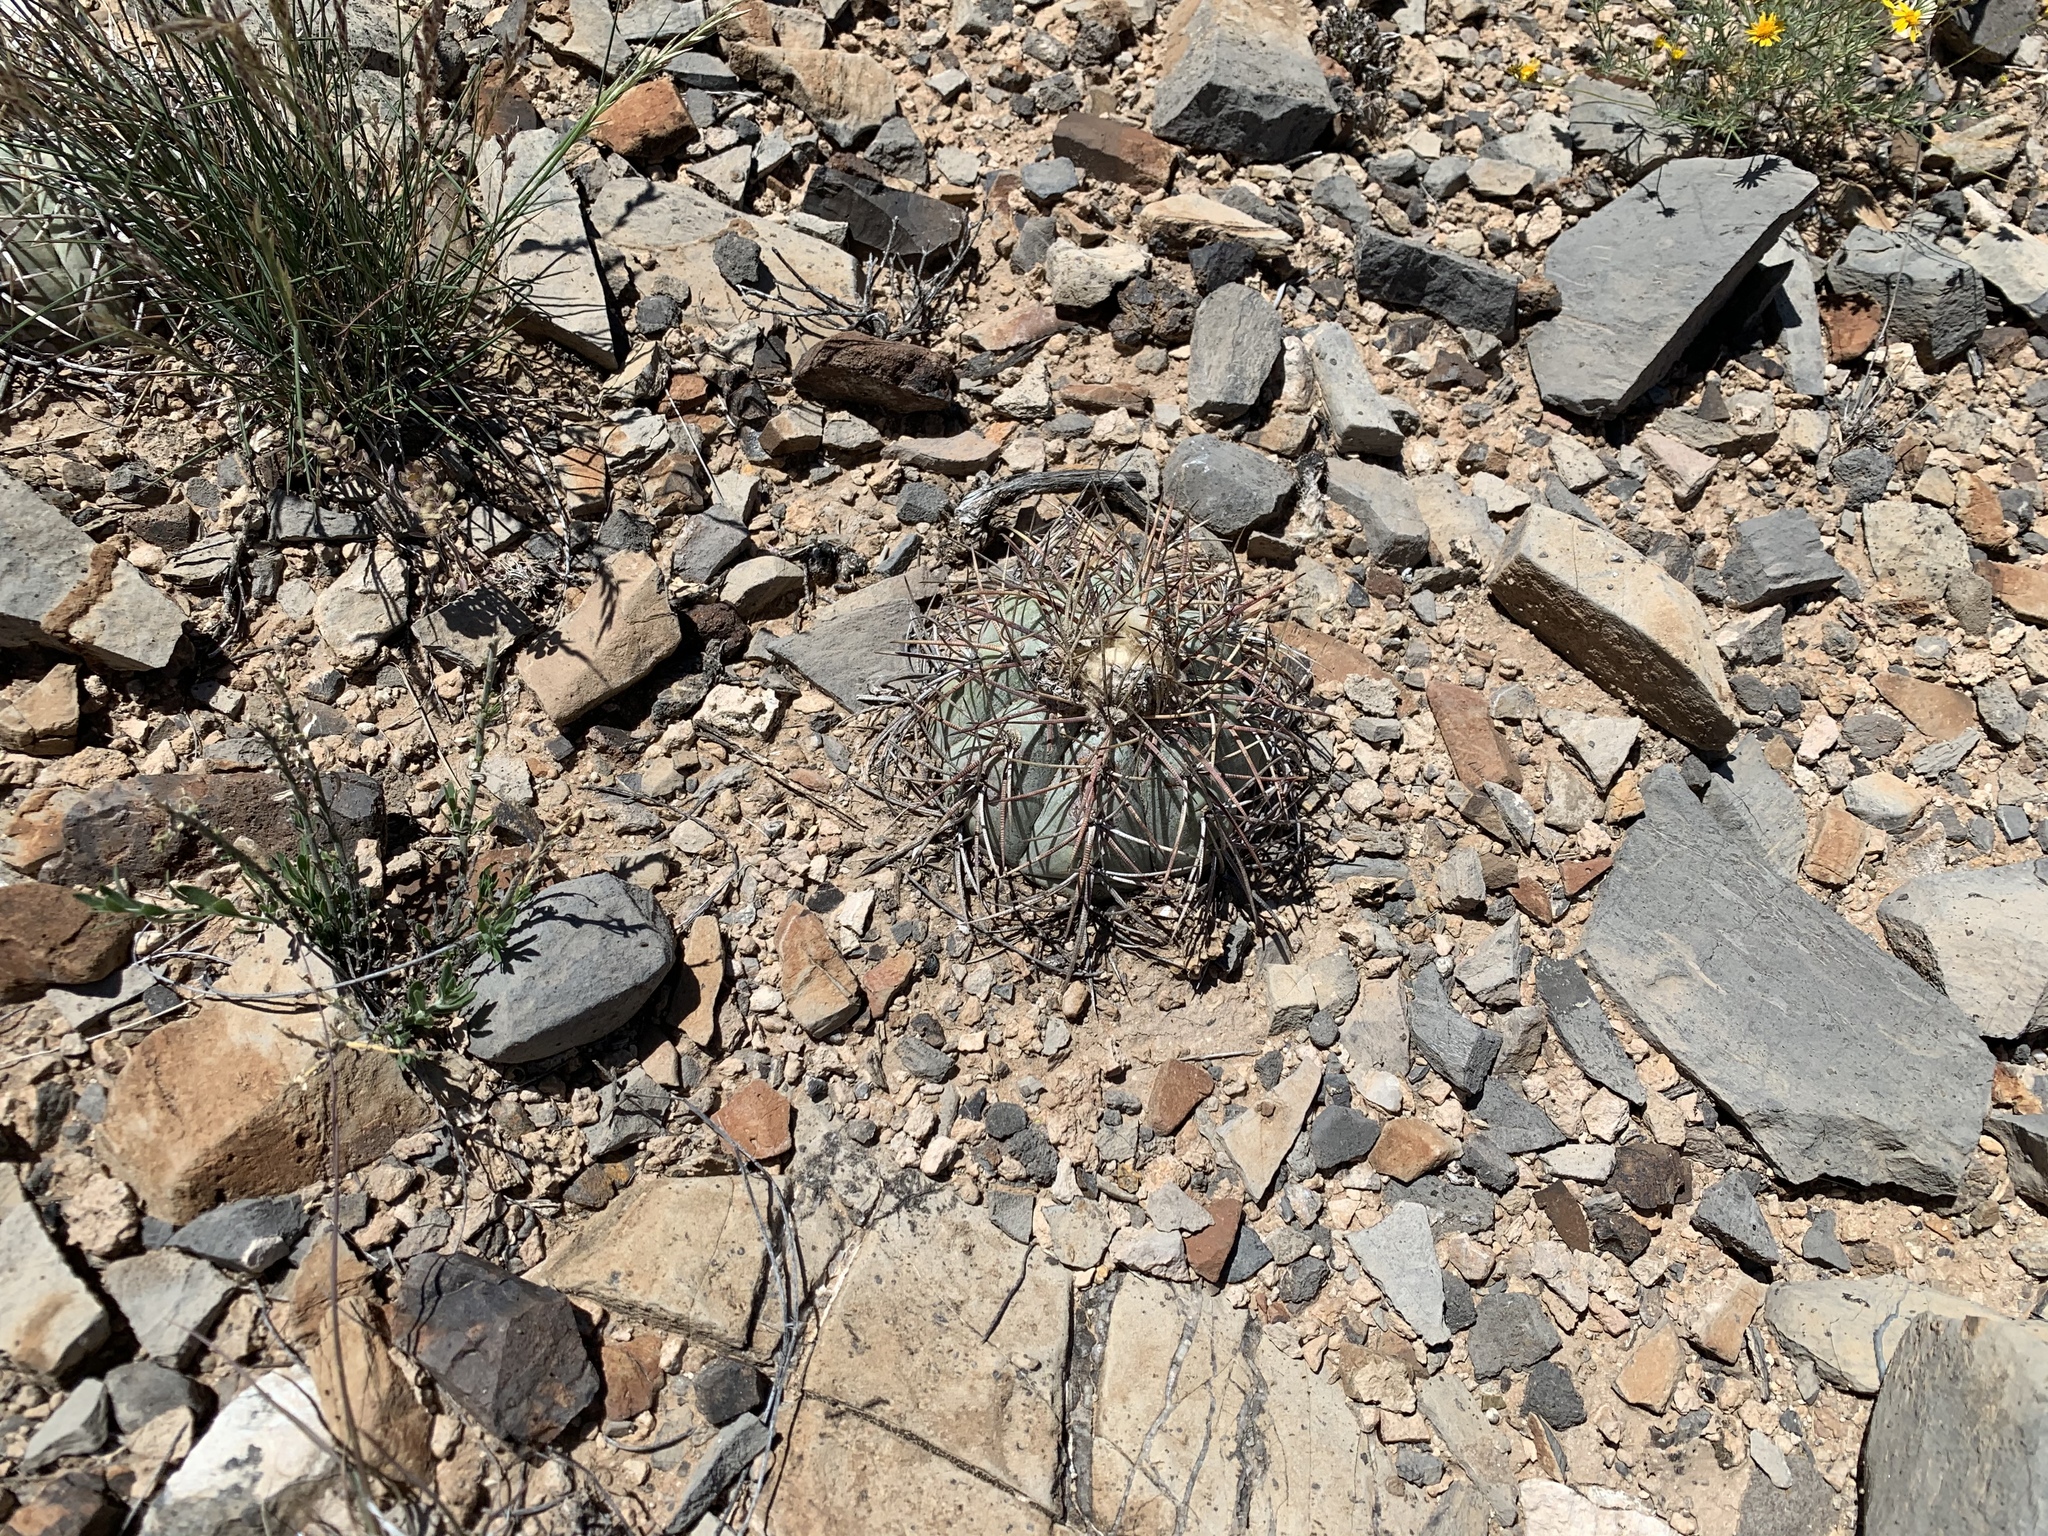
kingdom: Plantae
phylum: Tracheophyta
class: Magnoliopsida
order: Caryophyllales
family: Cactaceae
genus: Echinocactus
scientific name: Echinocactus horizonthalonius
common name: Devilshead
